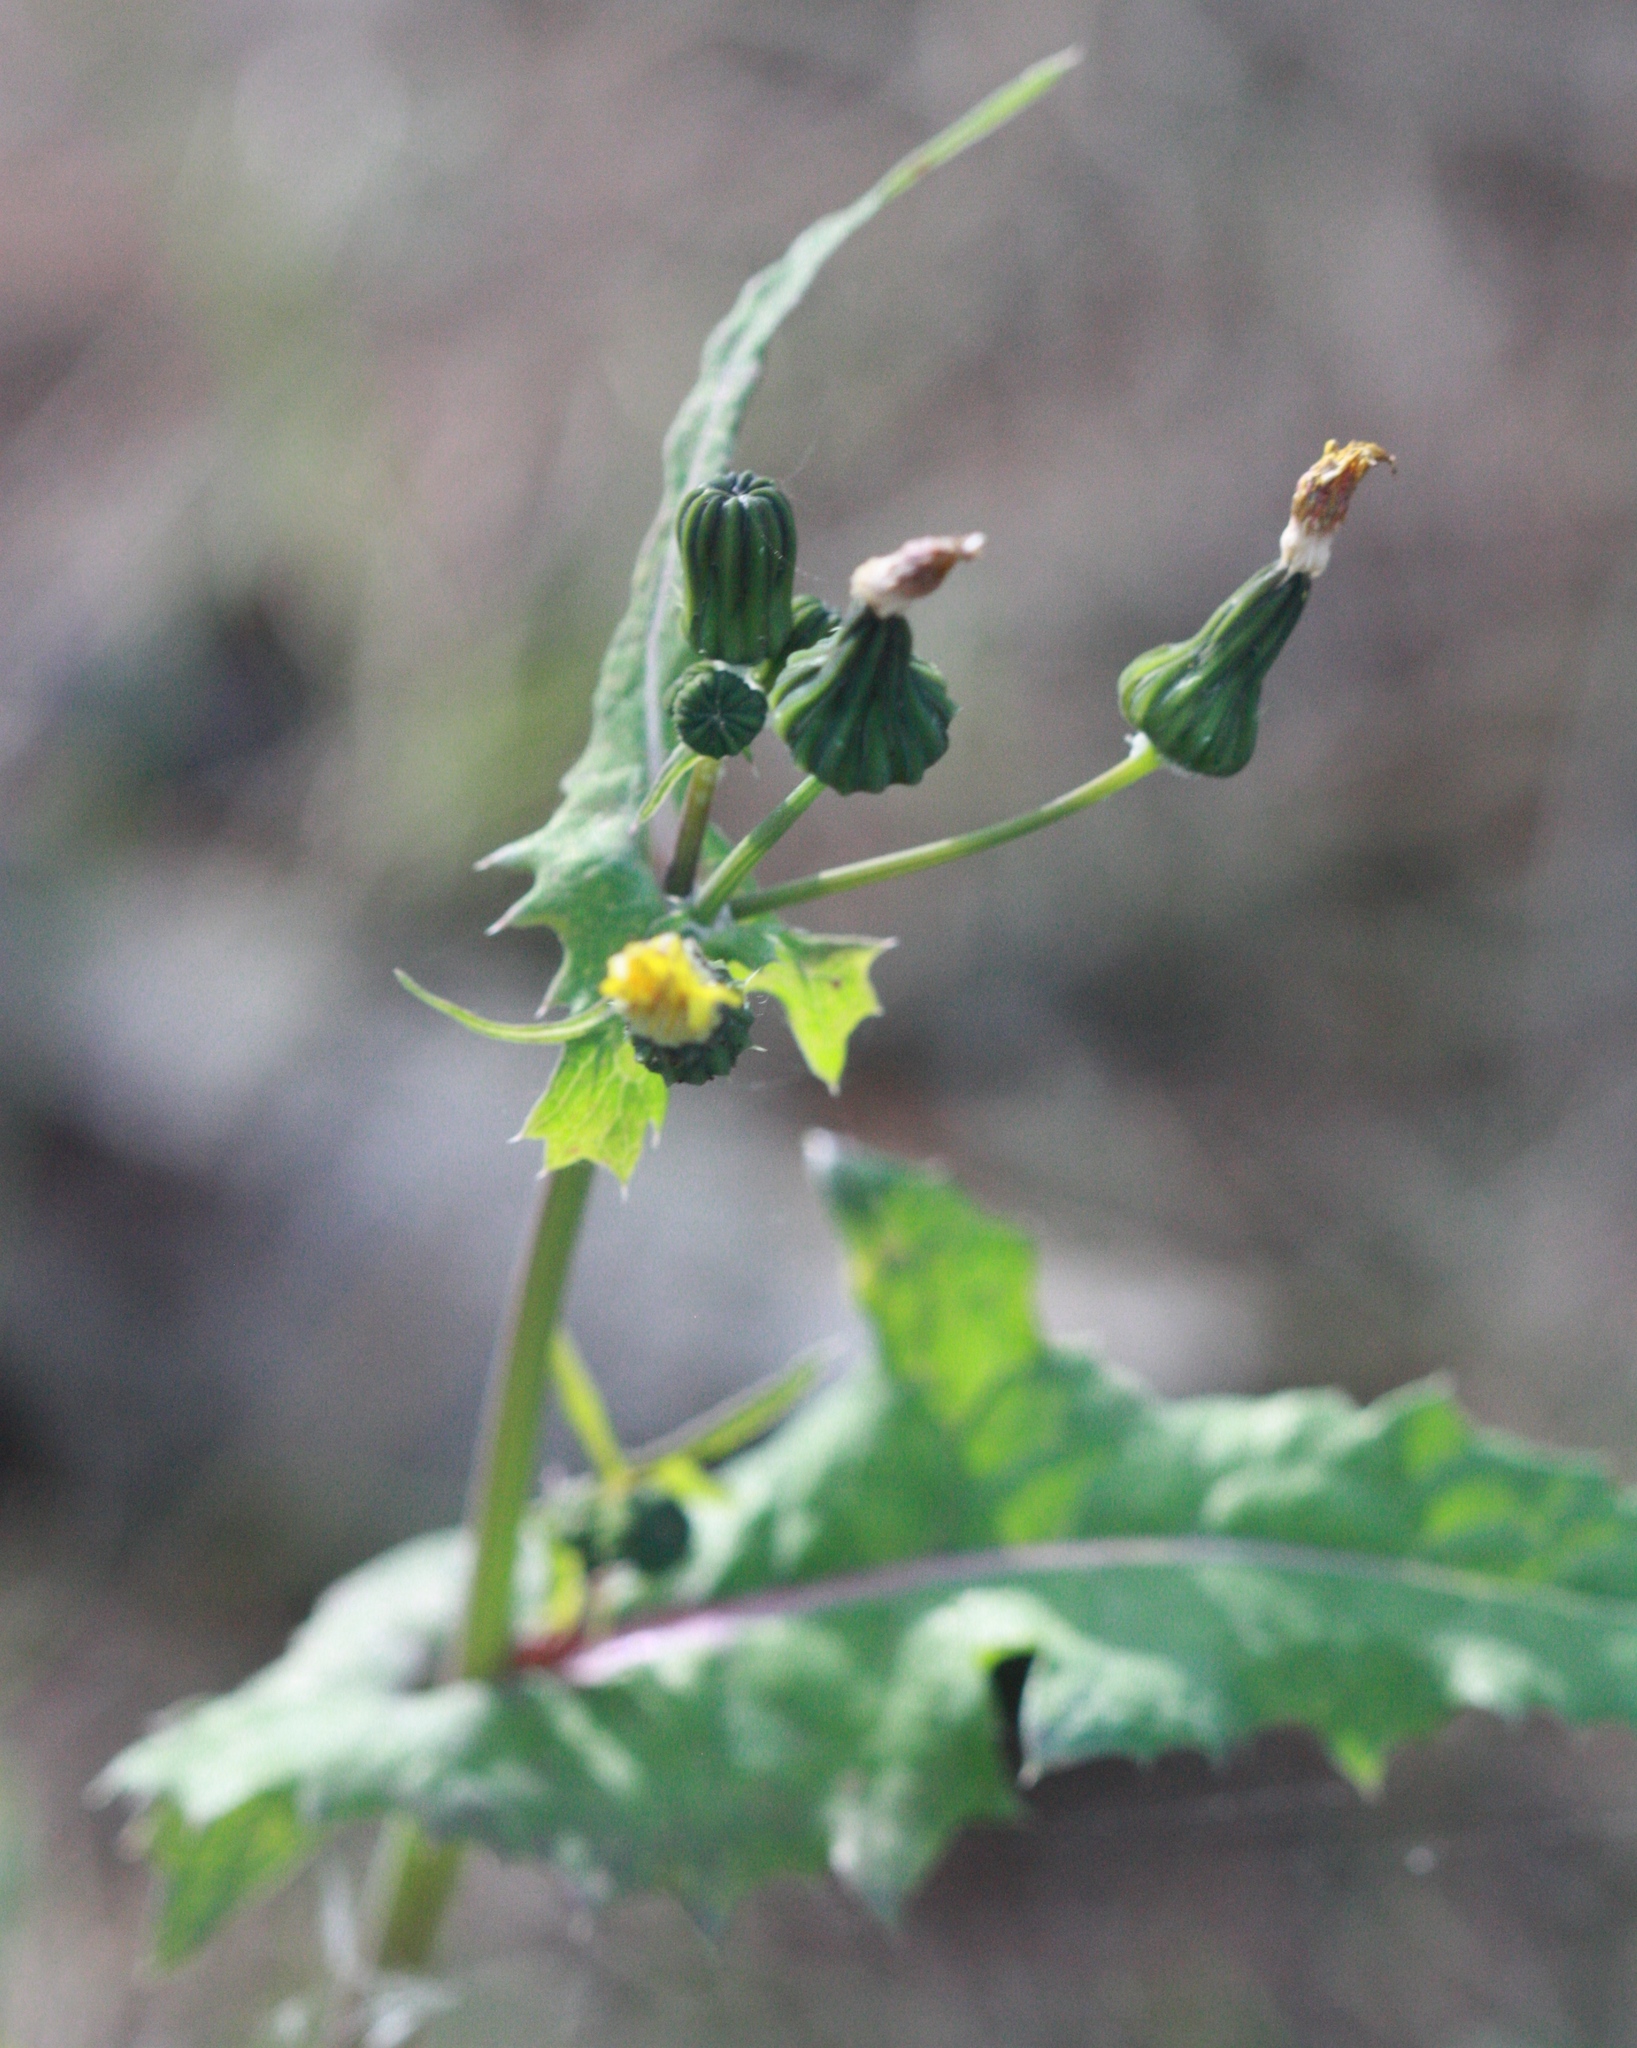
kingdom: Plantae
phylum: Tracheophyta
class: Magnoliopsida
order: Asterales
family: Asteraceae
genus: Sonchus
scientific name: Sonchus oleraceus
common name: Common sowthistle
